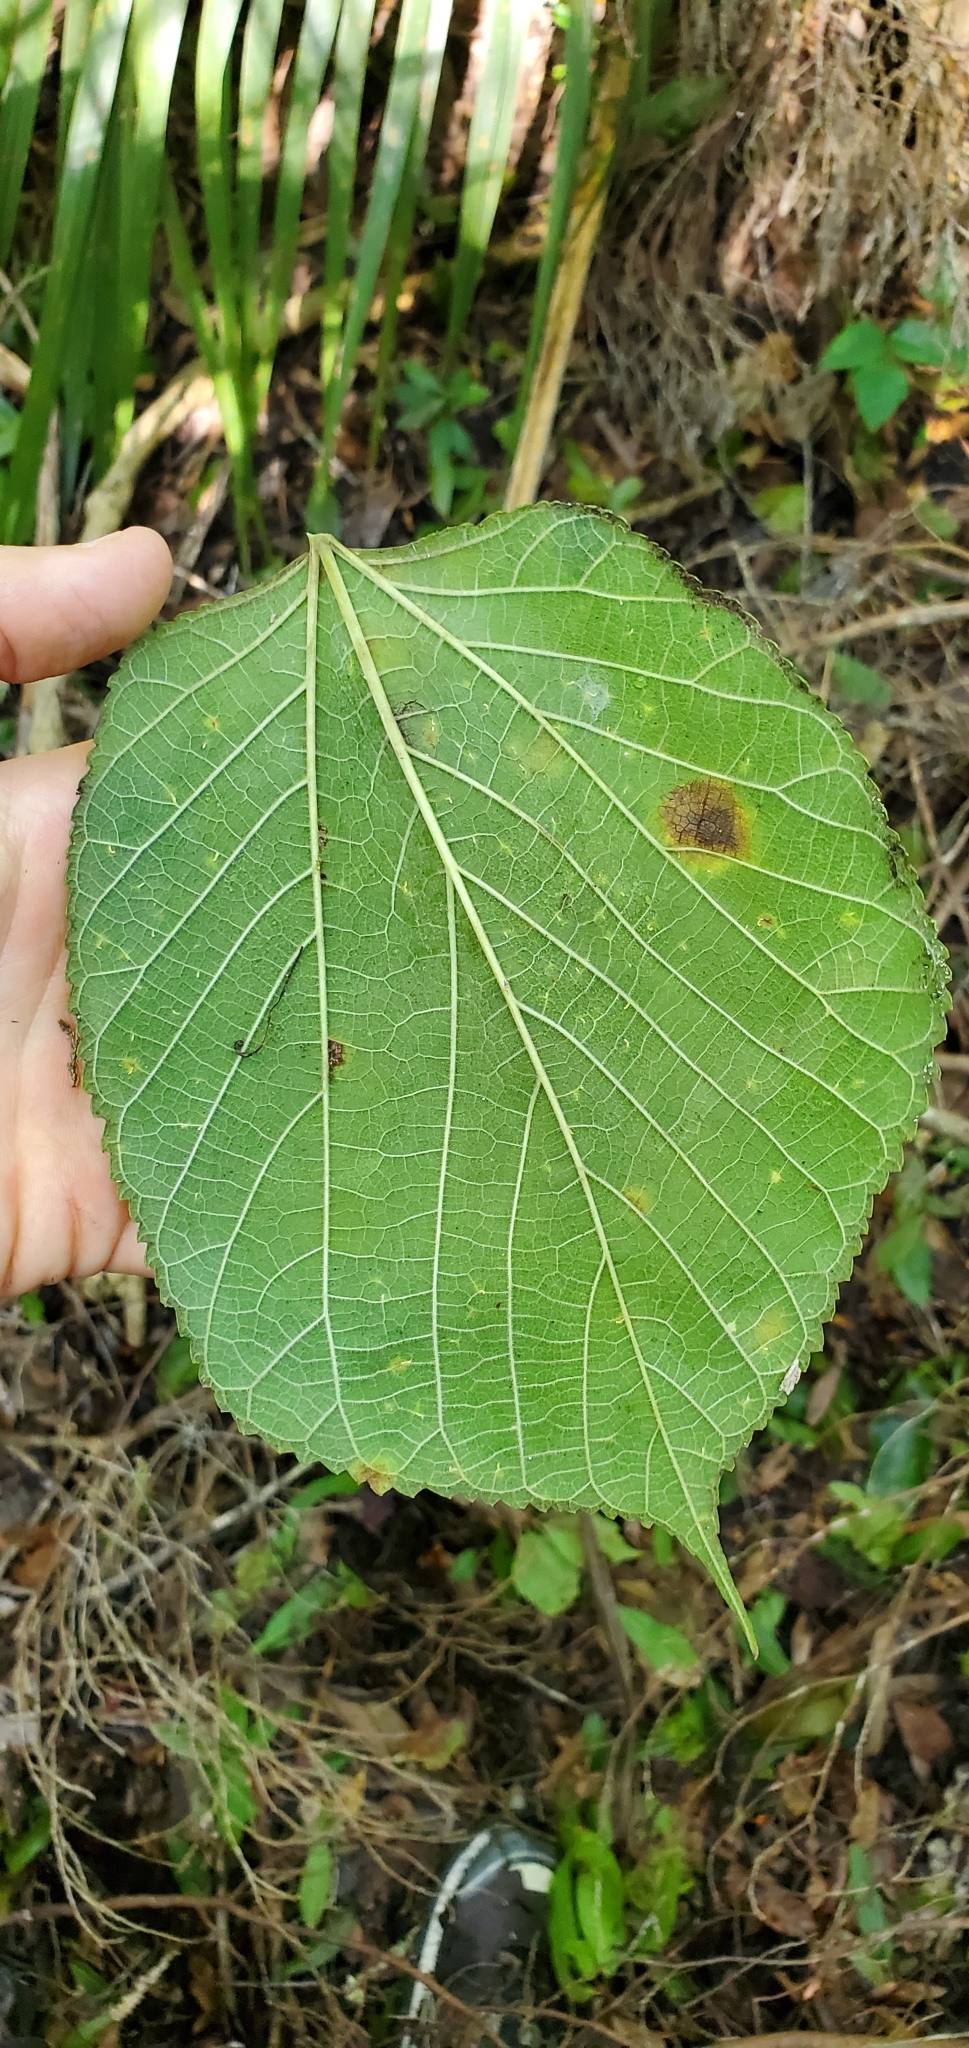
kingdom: Plantae
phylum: Tracheophyta
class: Magnoliopsida
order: Rosales
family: Moraceae
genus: Morus
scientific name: Morus rubra
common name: Red mulberry
